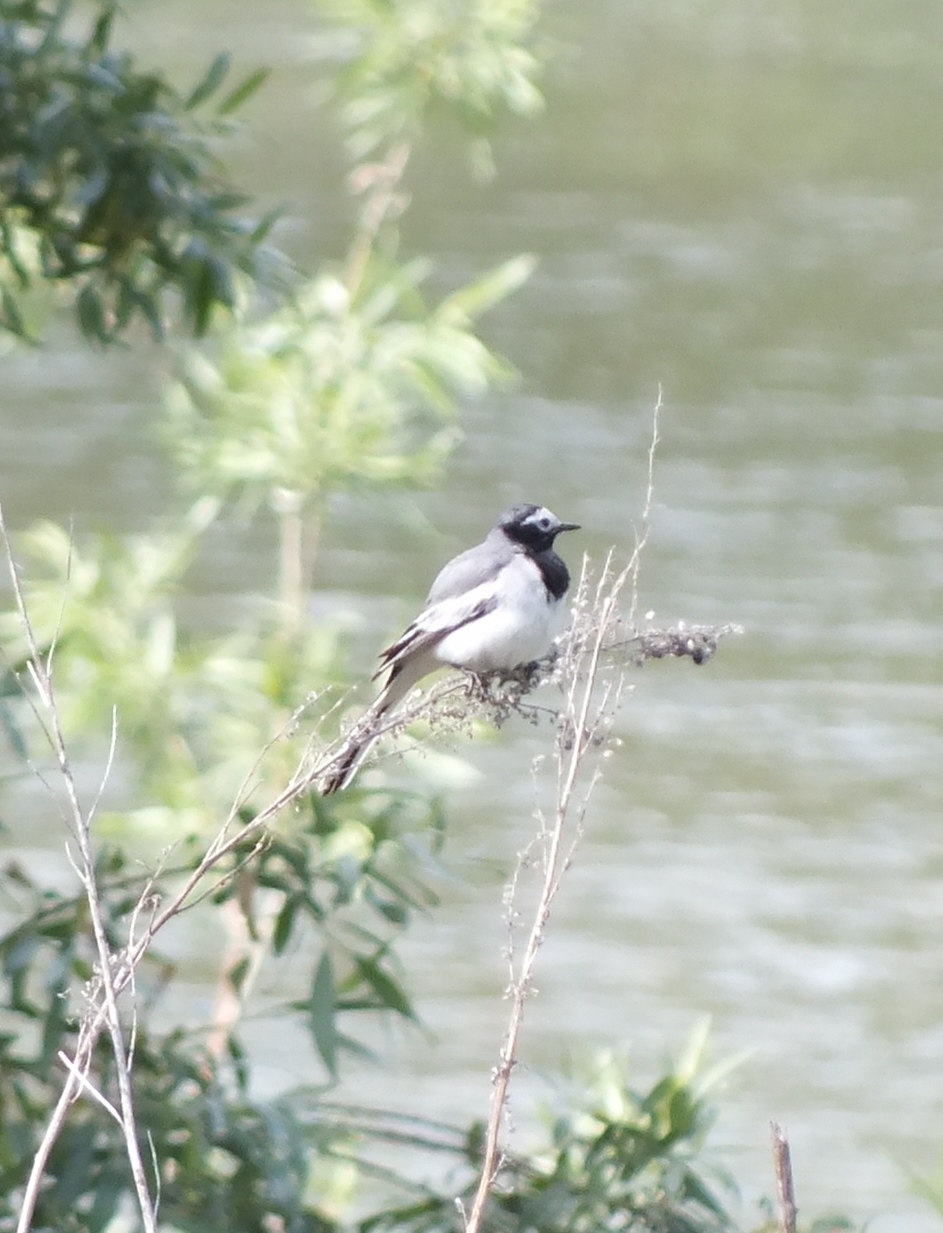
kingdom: Animalia
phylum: Chordata
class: Aves
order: Passeriformes
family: Motacillidae
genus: Motacilla
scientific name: Motacilla alba
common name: White wagtail
